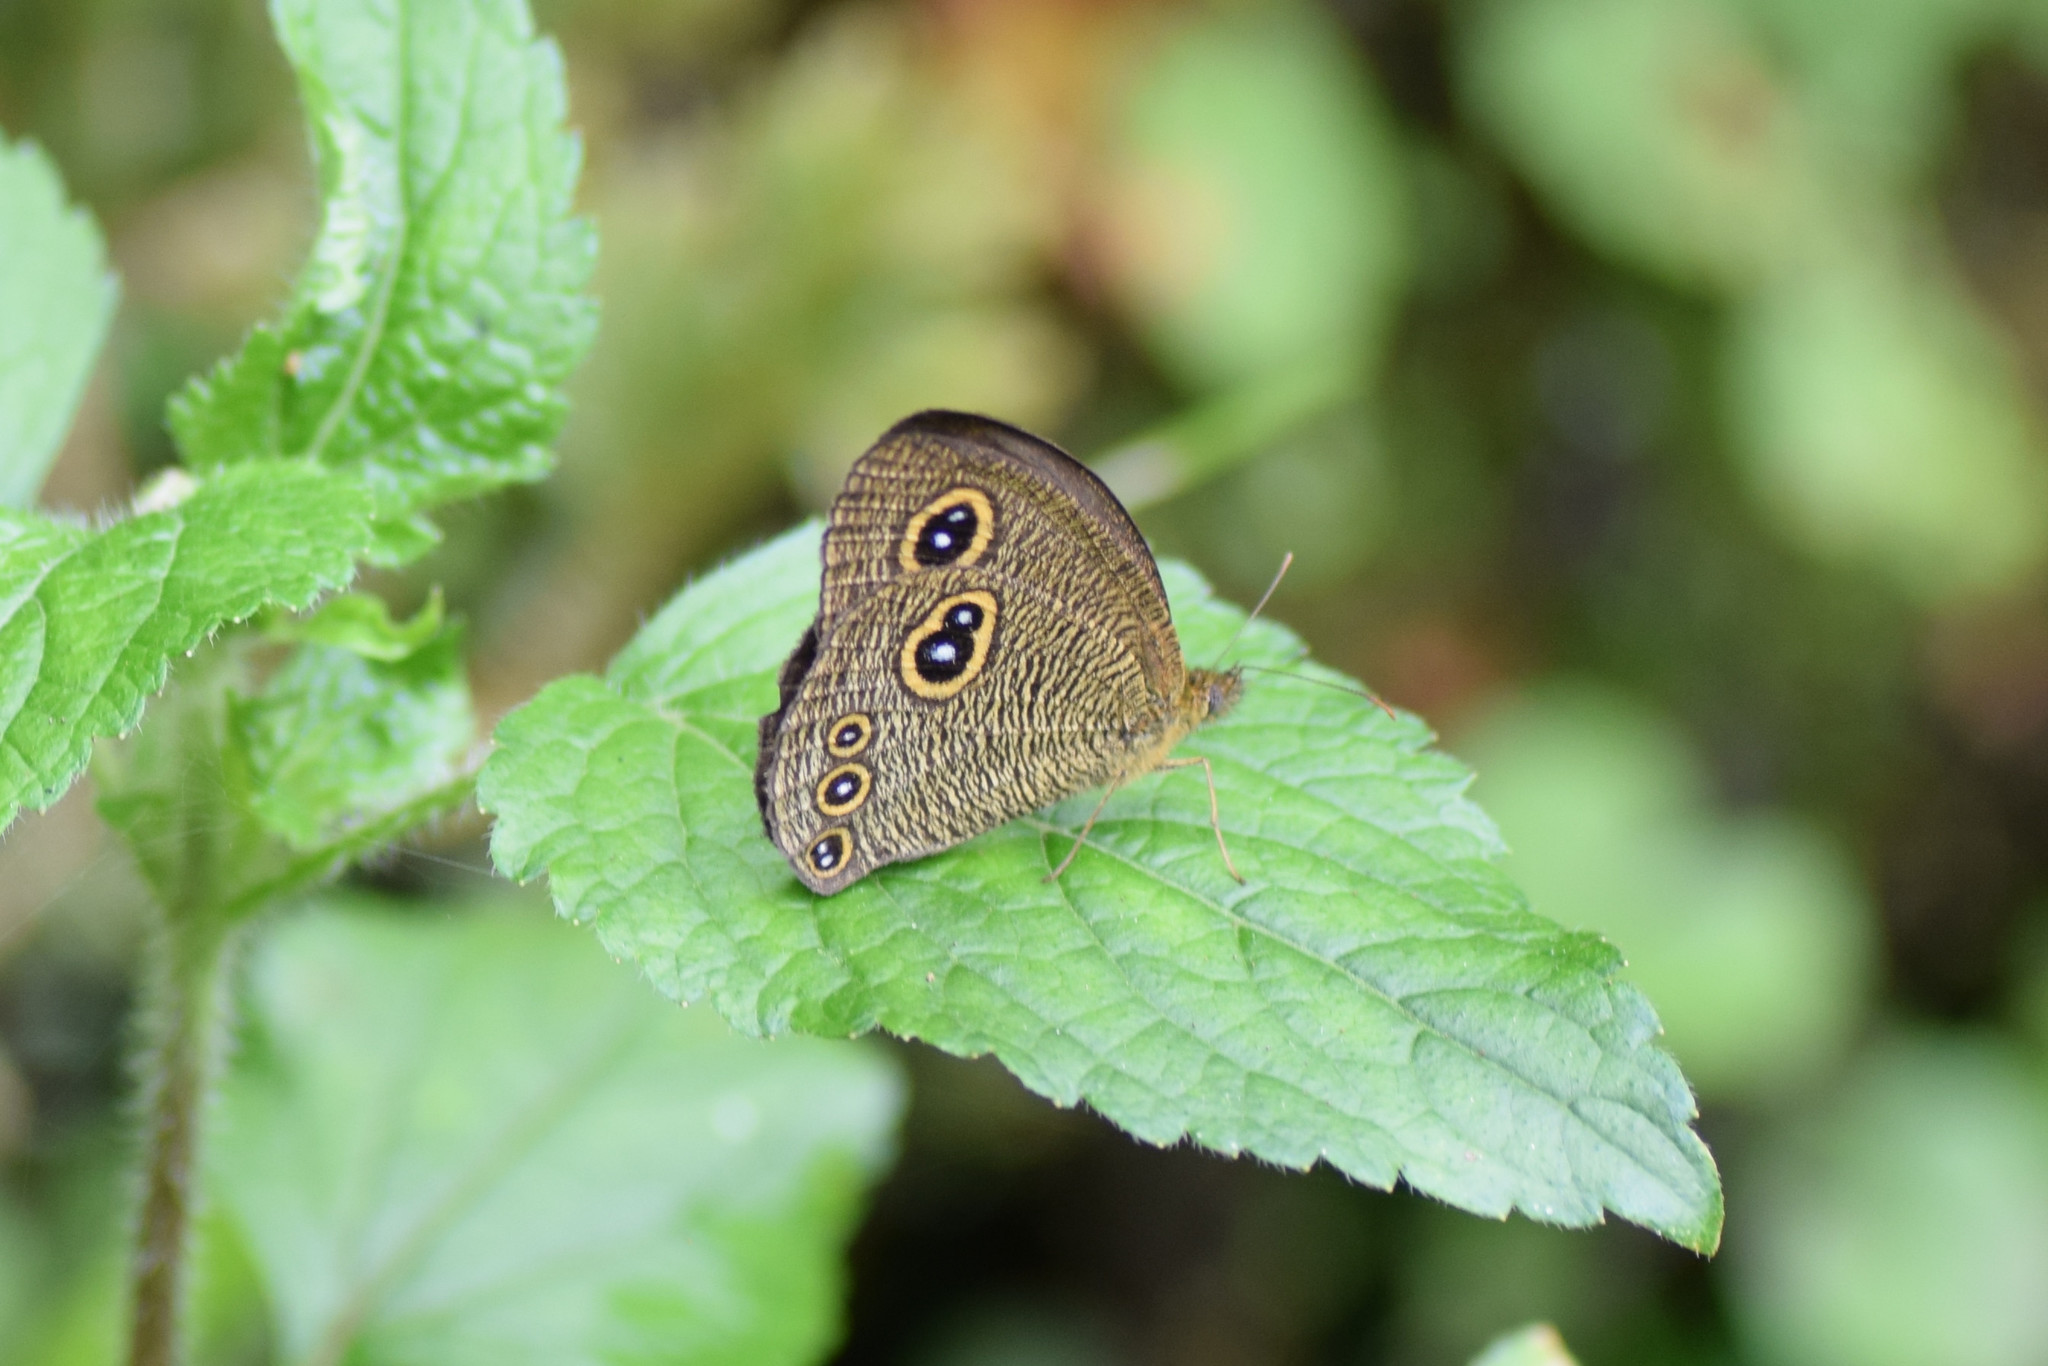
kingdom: Animalia
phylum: Arthropoda
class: Insecta
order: Lepidoptera
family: Nymphalidae
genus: Ypthima
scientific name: Ypthima nikaea
